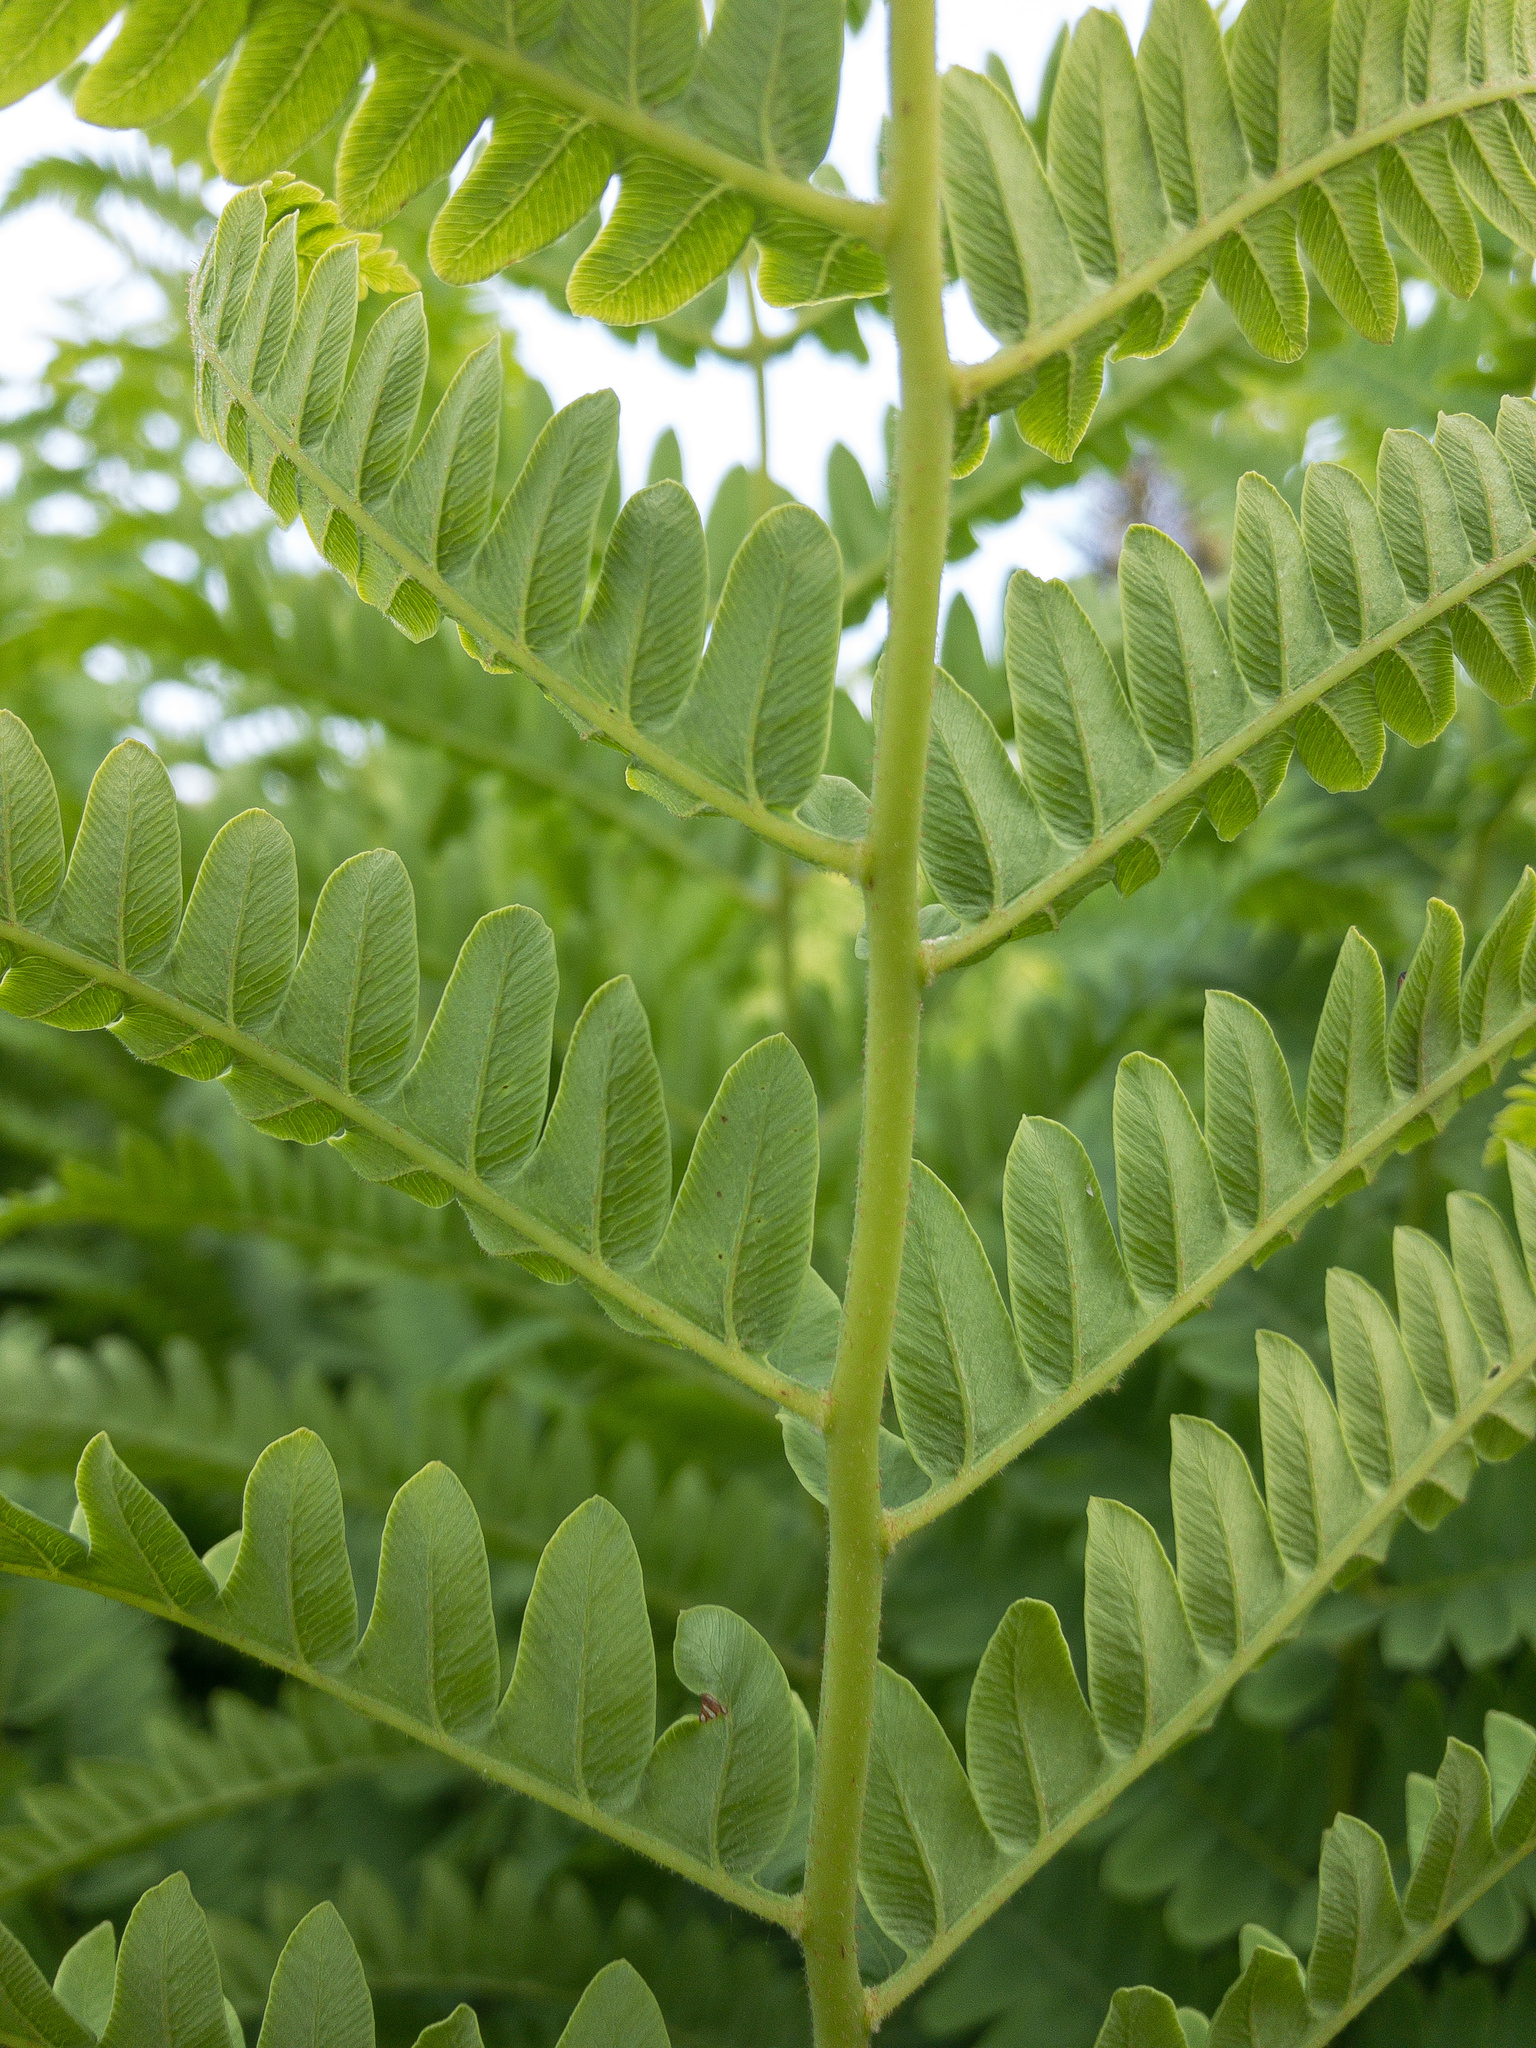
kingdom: Plantae
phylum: Tracheophyta
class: Polypodiopsida
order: Osmundales
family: Osmundaceae
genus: Claytosmunda
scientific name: Claytosmunda claytoniana
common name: Clayton's fern
